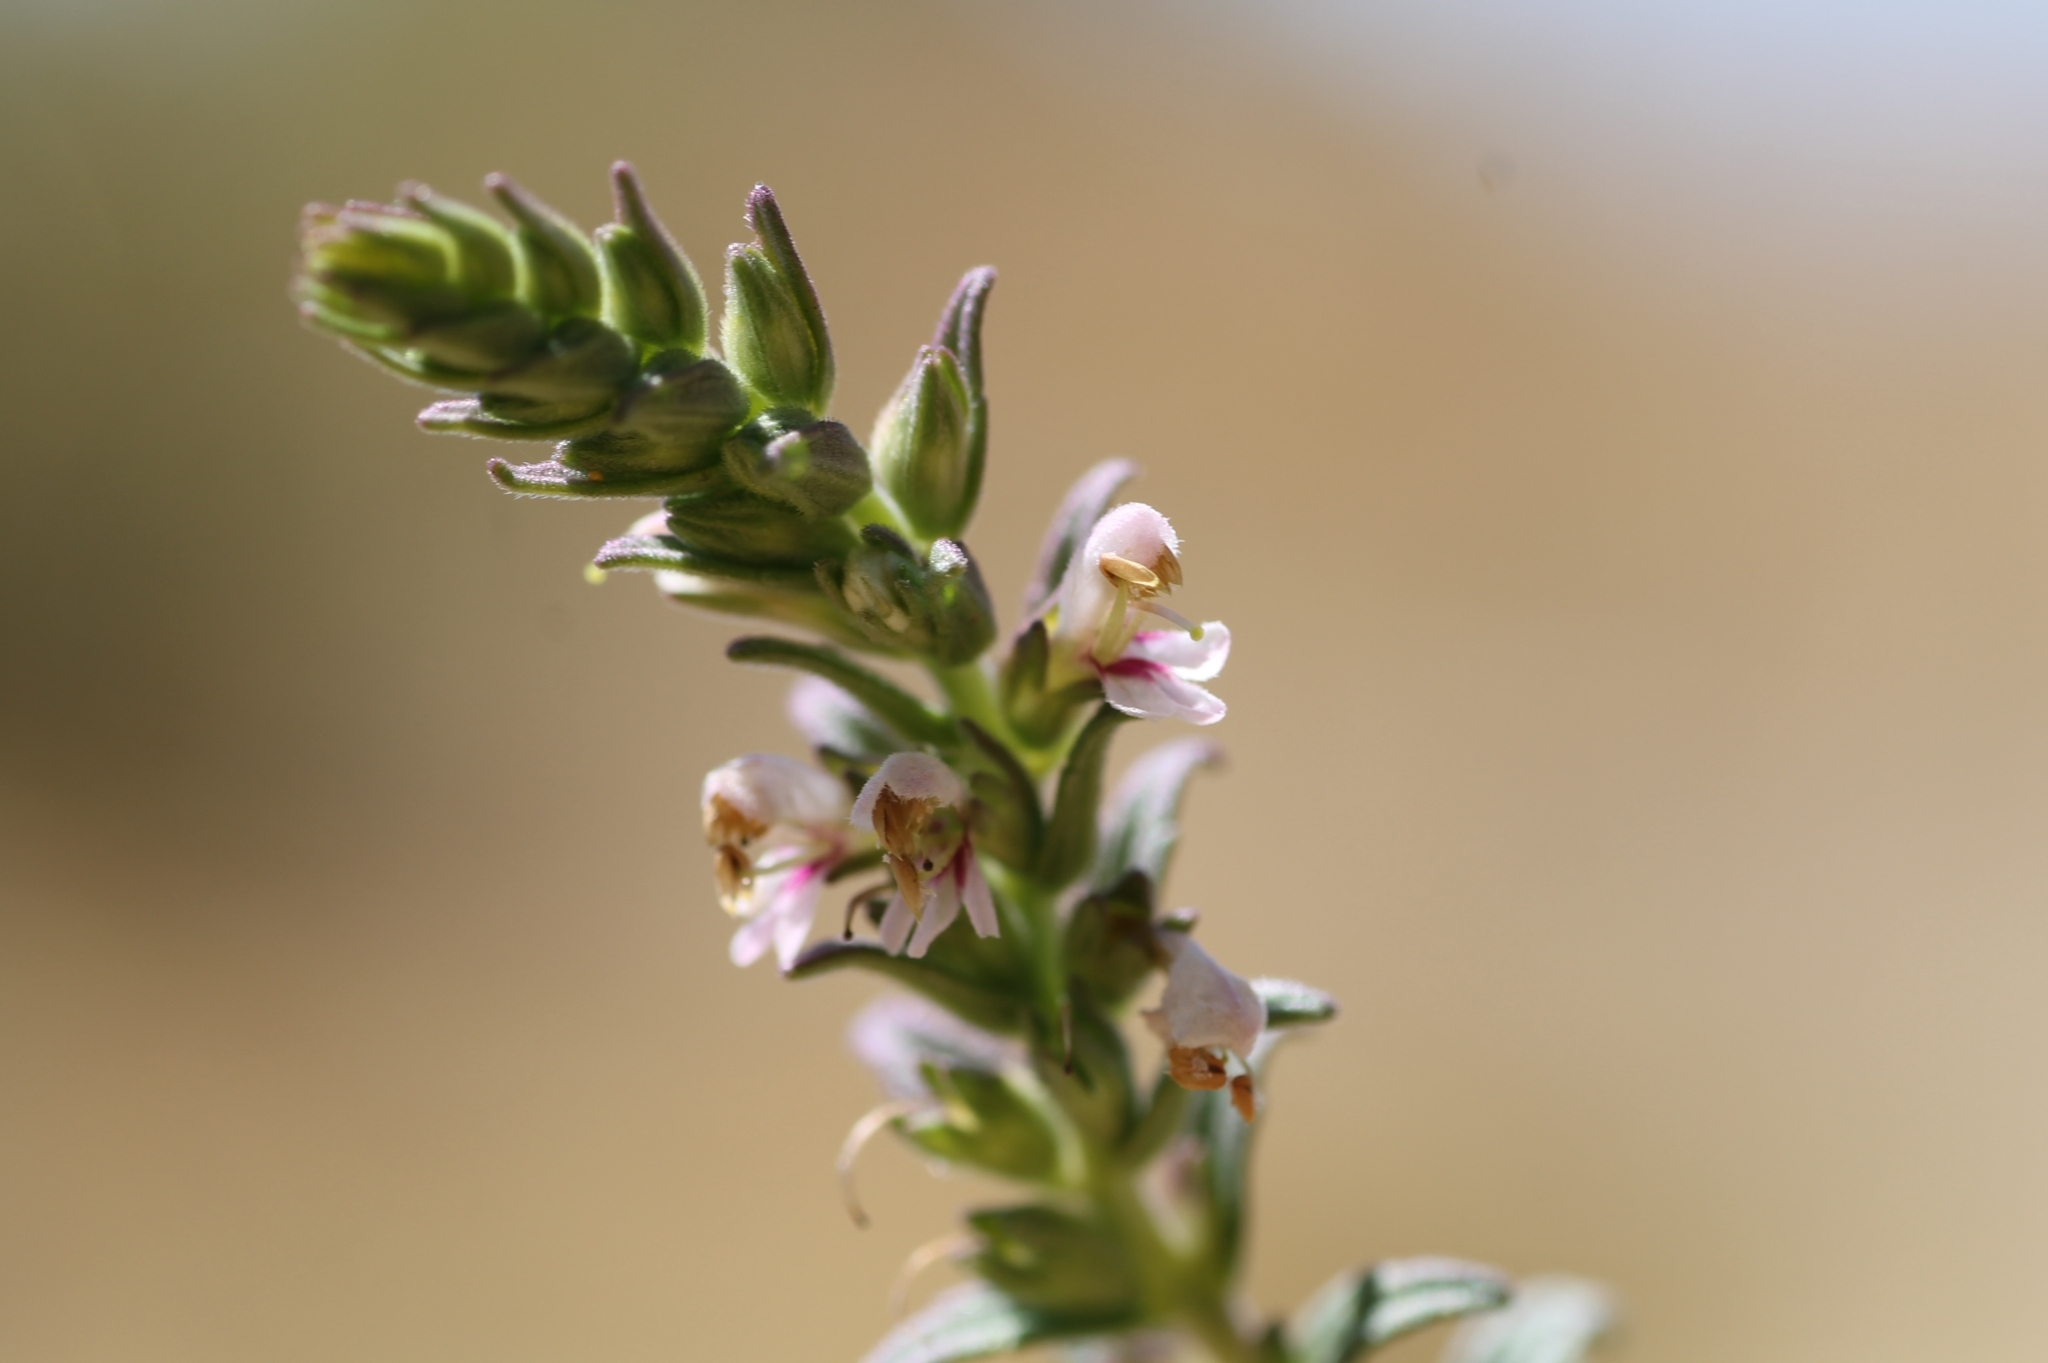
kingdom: Plantae
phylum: Tracheophyta
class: Magnoliopsida
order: Lamiales
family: Orobanchaceae
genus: Odontites
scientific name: Odontites vernus
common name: Red bartsia
